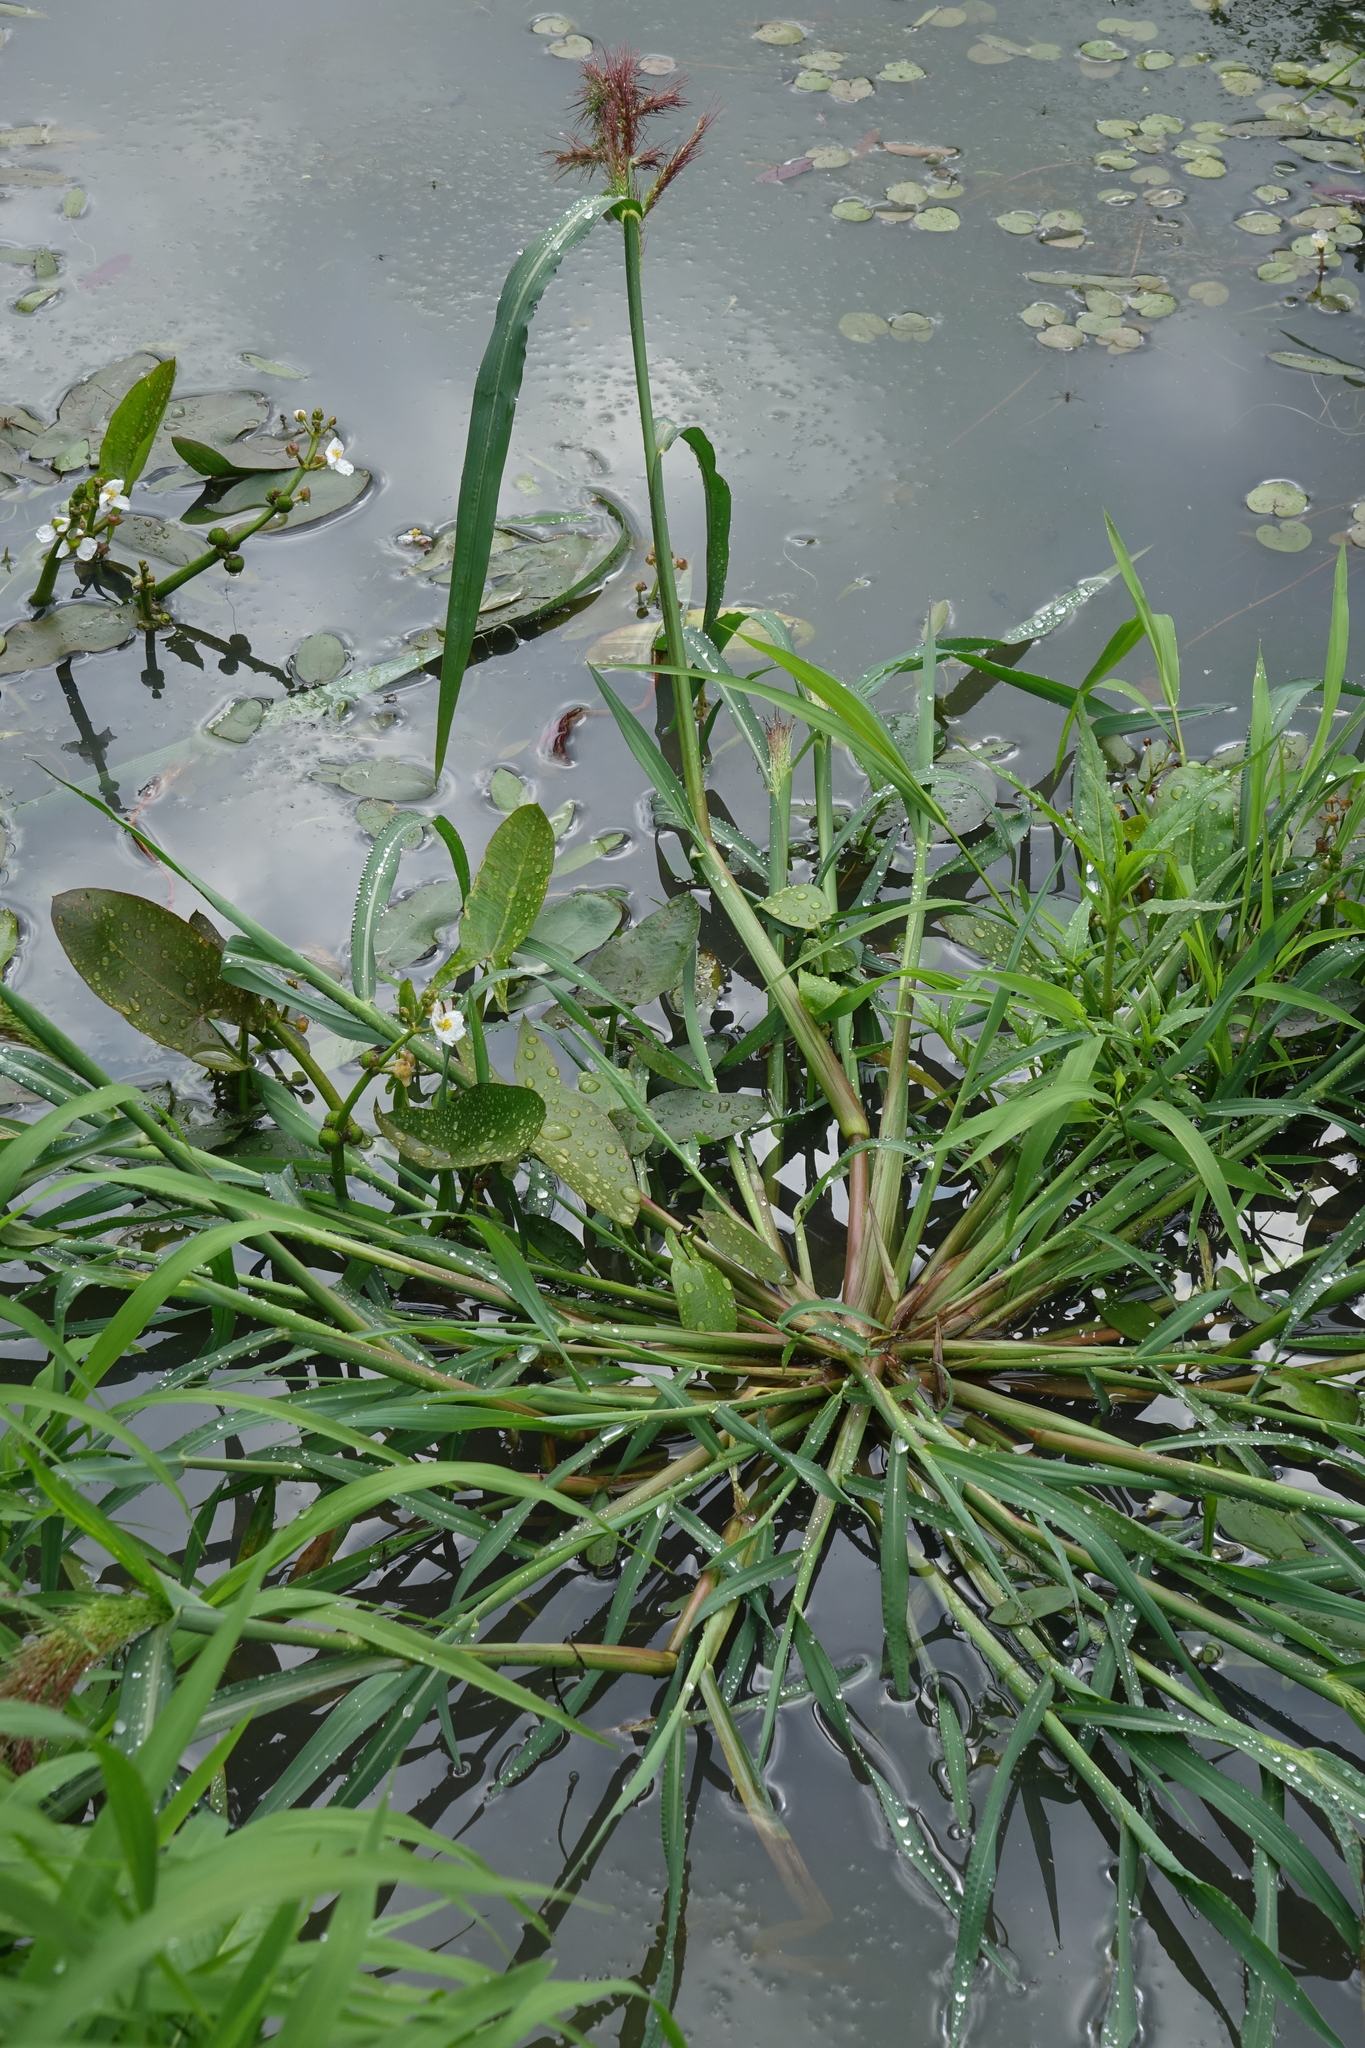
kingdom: Plantae
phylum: Tracheophyta
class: Liliopsida
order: Poales
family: Poaceae
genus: Echinochloa
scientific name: Echinochloa crus-galli
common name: Cockspur
